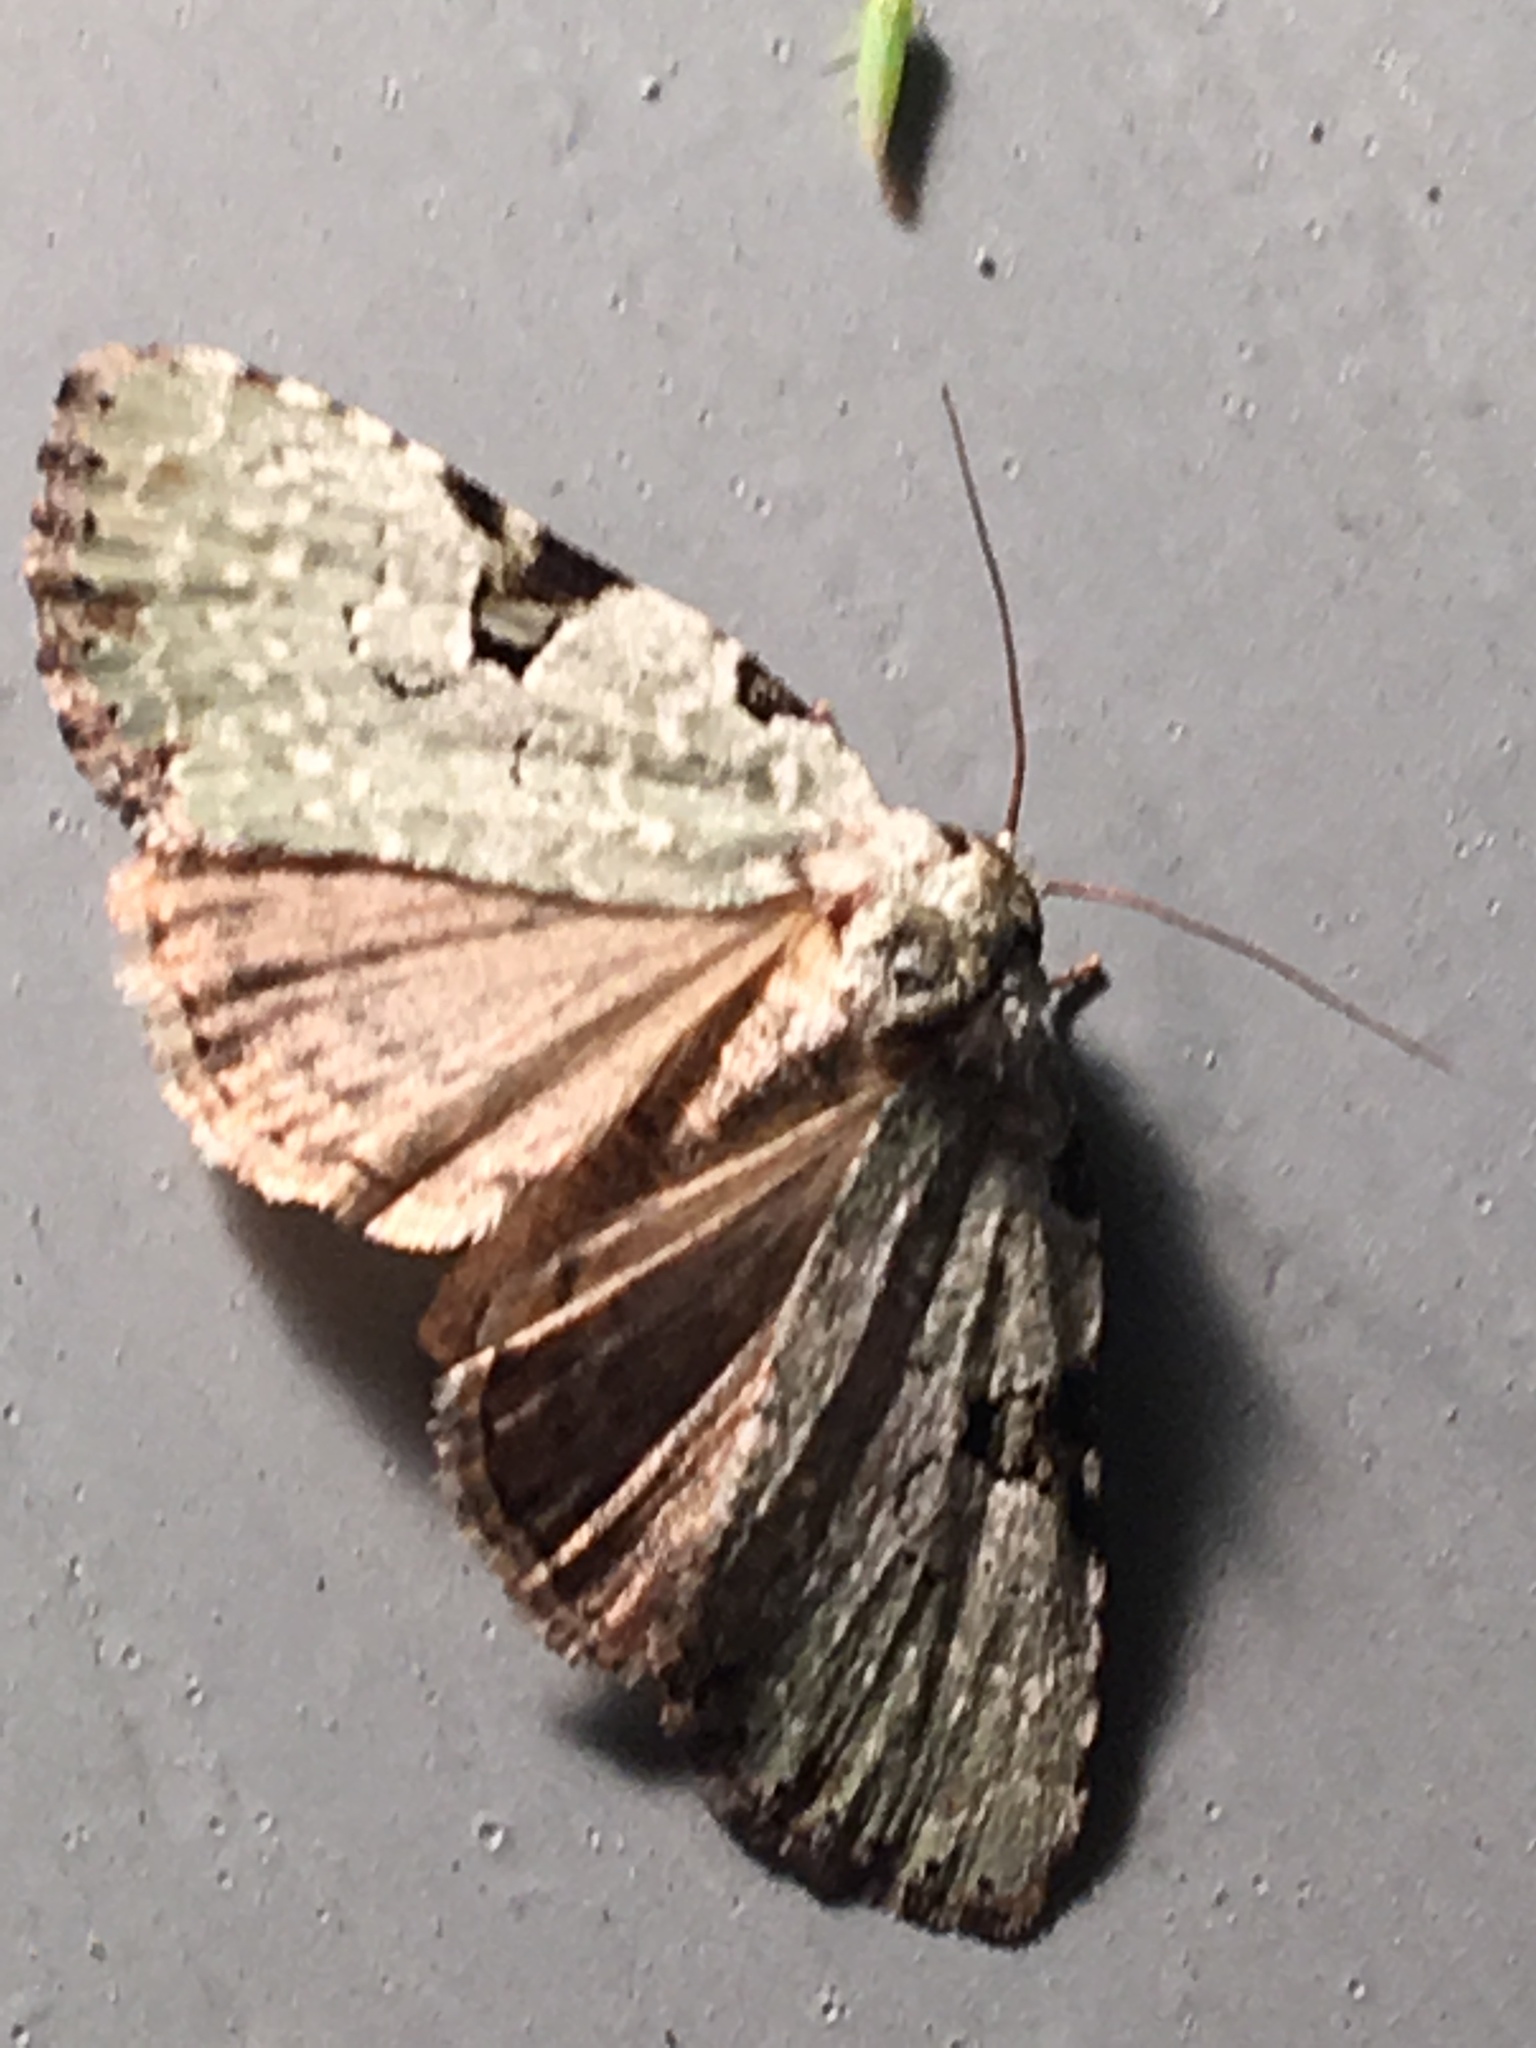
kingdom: Animalia
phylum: Arthropoda
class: Insecta
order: Lepidoptera
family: Noctuidae
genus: Leuconycta
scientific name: Leuconycta diphteroides
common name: Green leuconycta moth
